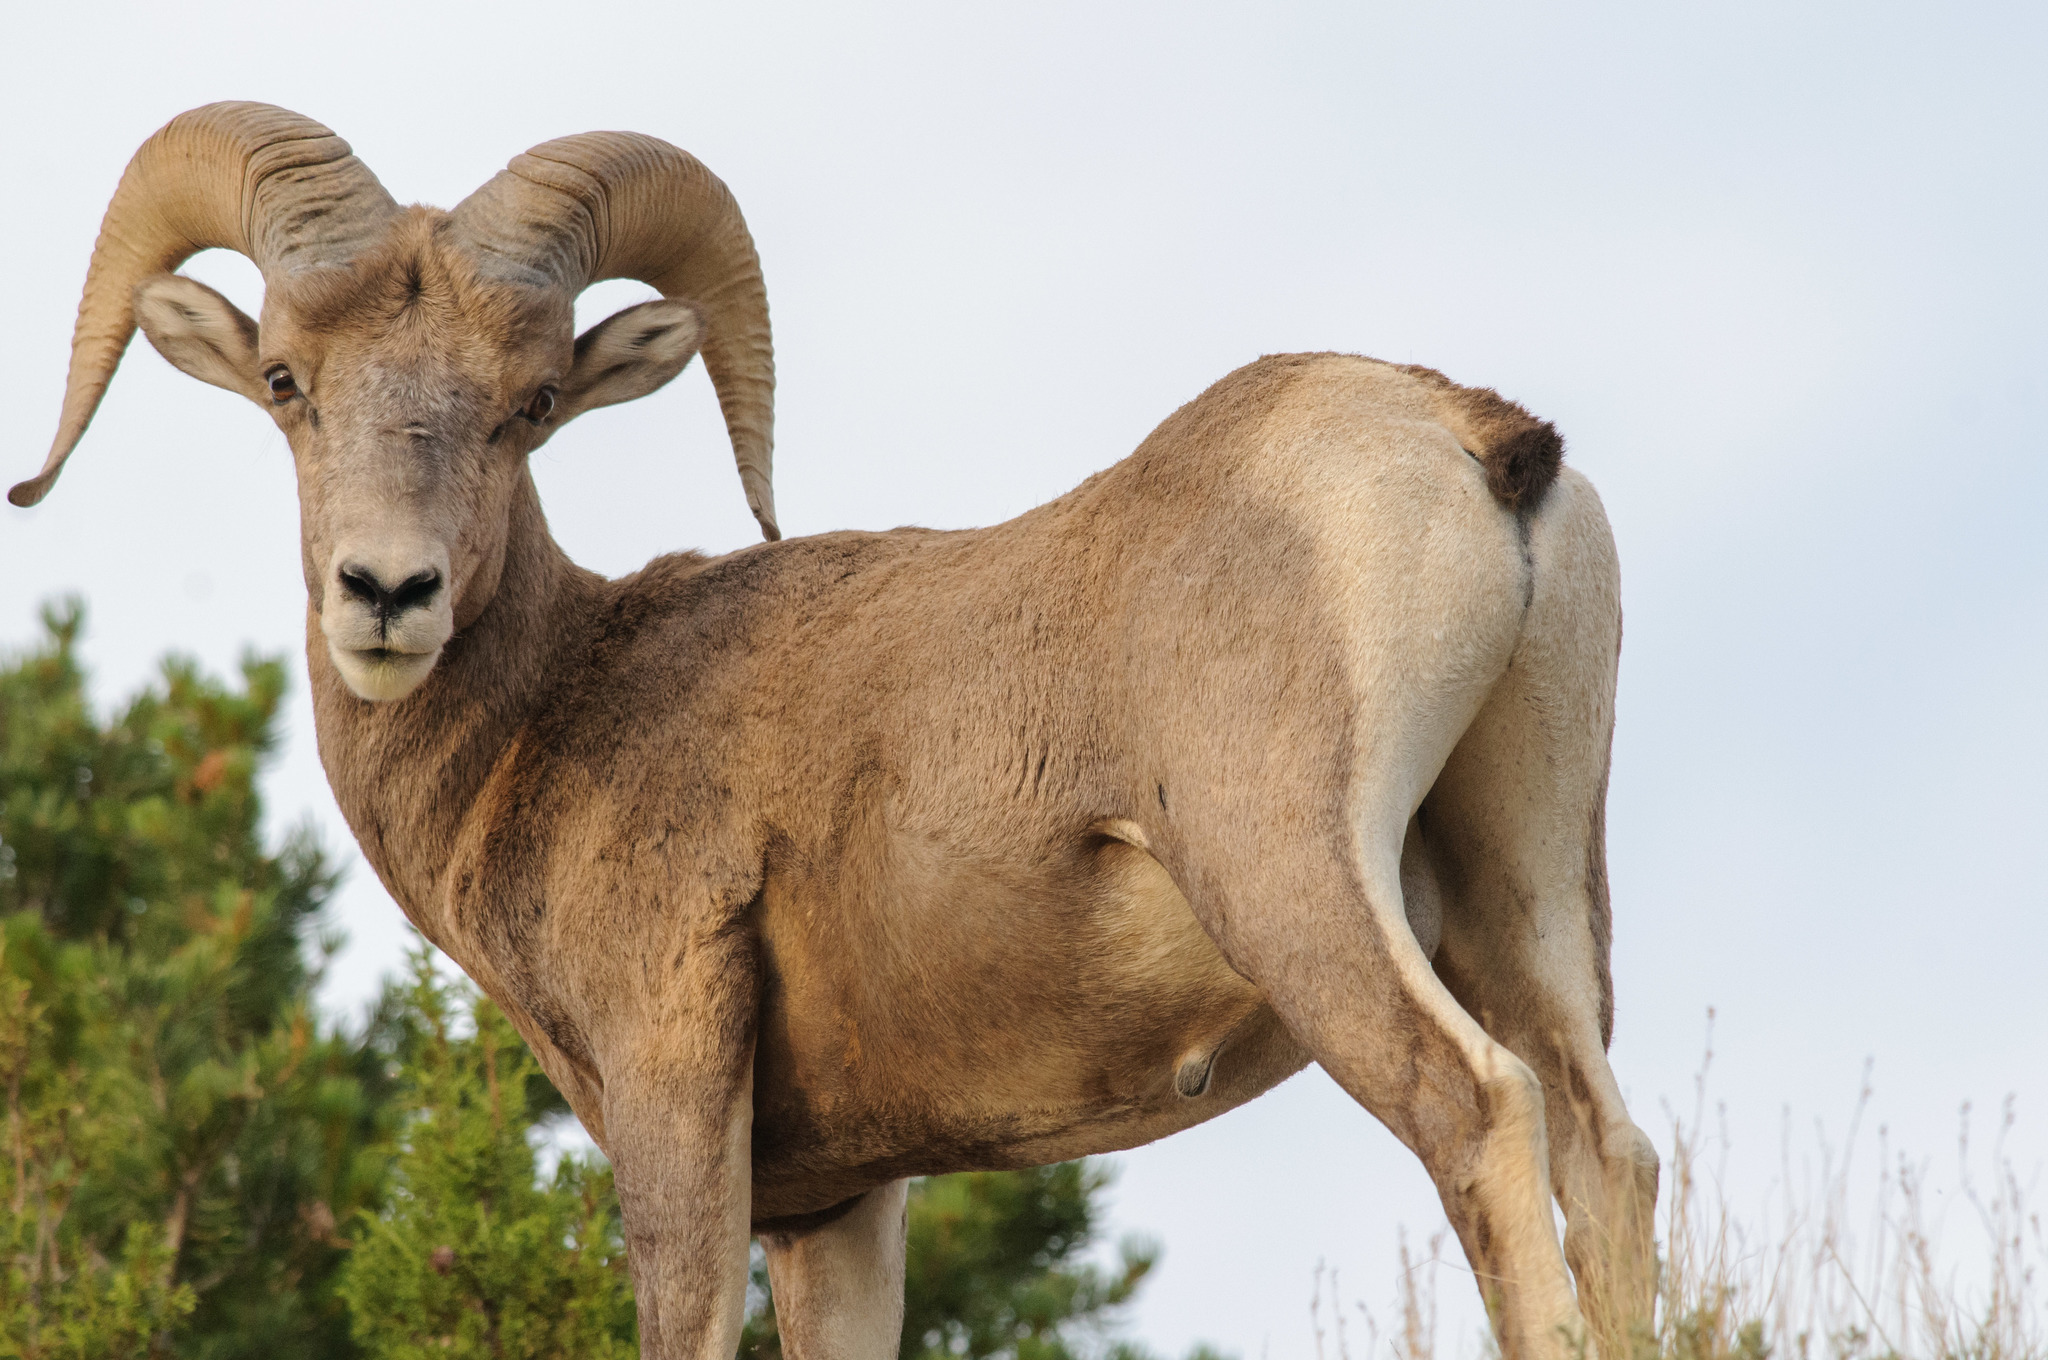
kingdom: Animalia
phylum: Chordata
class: Mammalia
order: Artiodactyla
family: Bovidae
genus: Ovis
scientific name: Ovis canadensis
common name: Bighorn sheep
